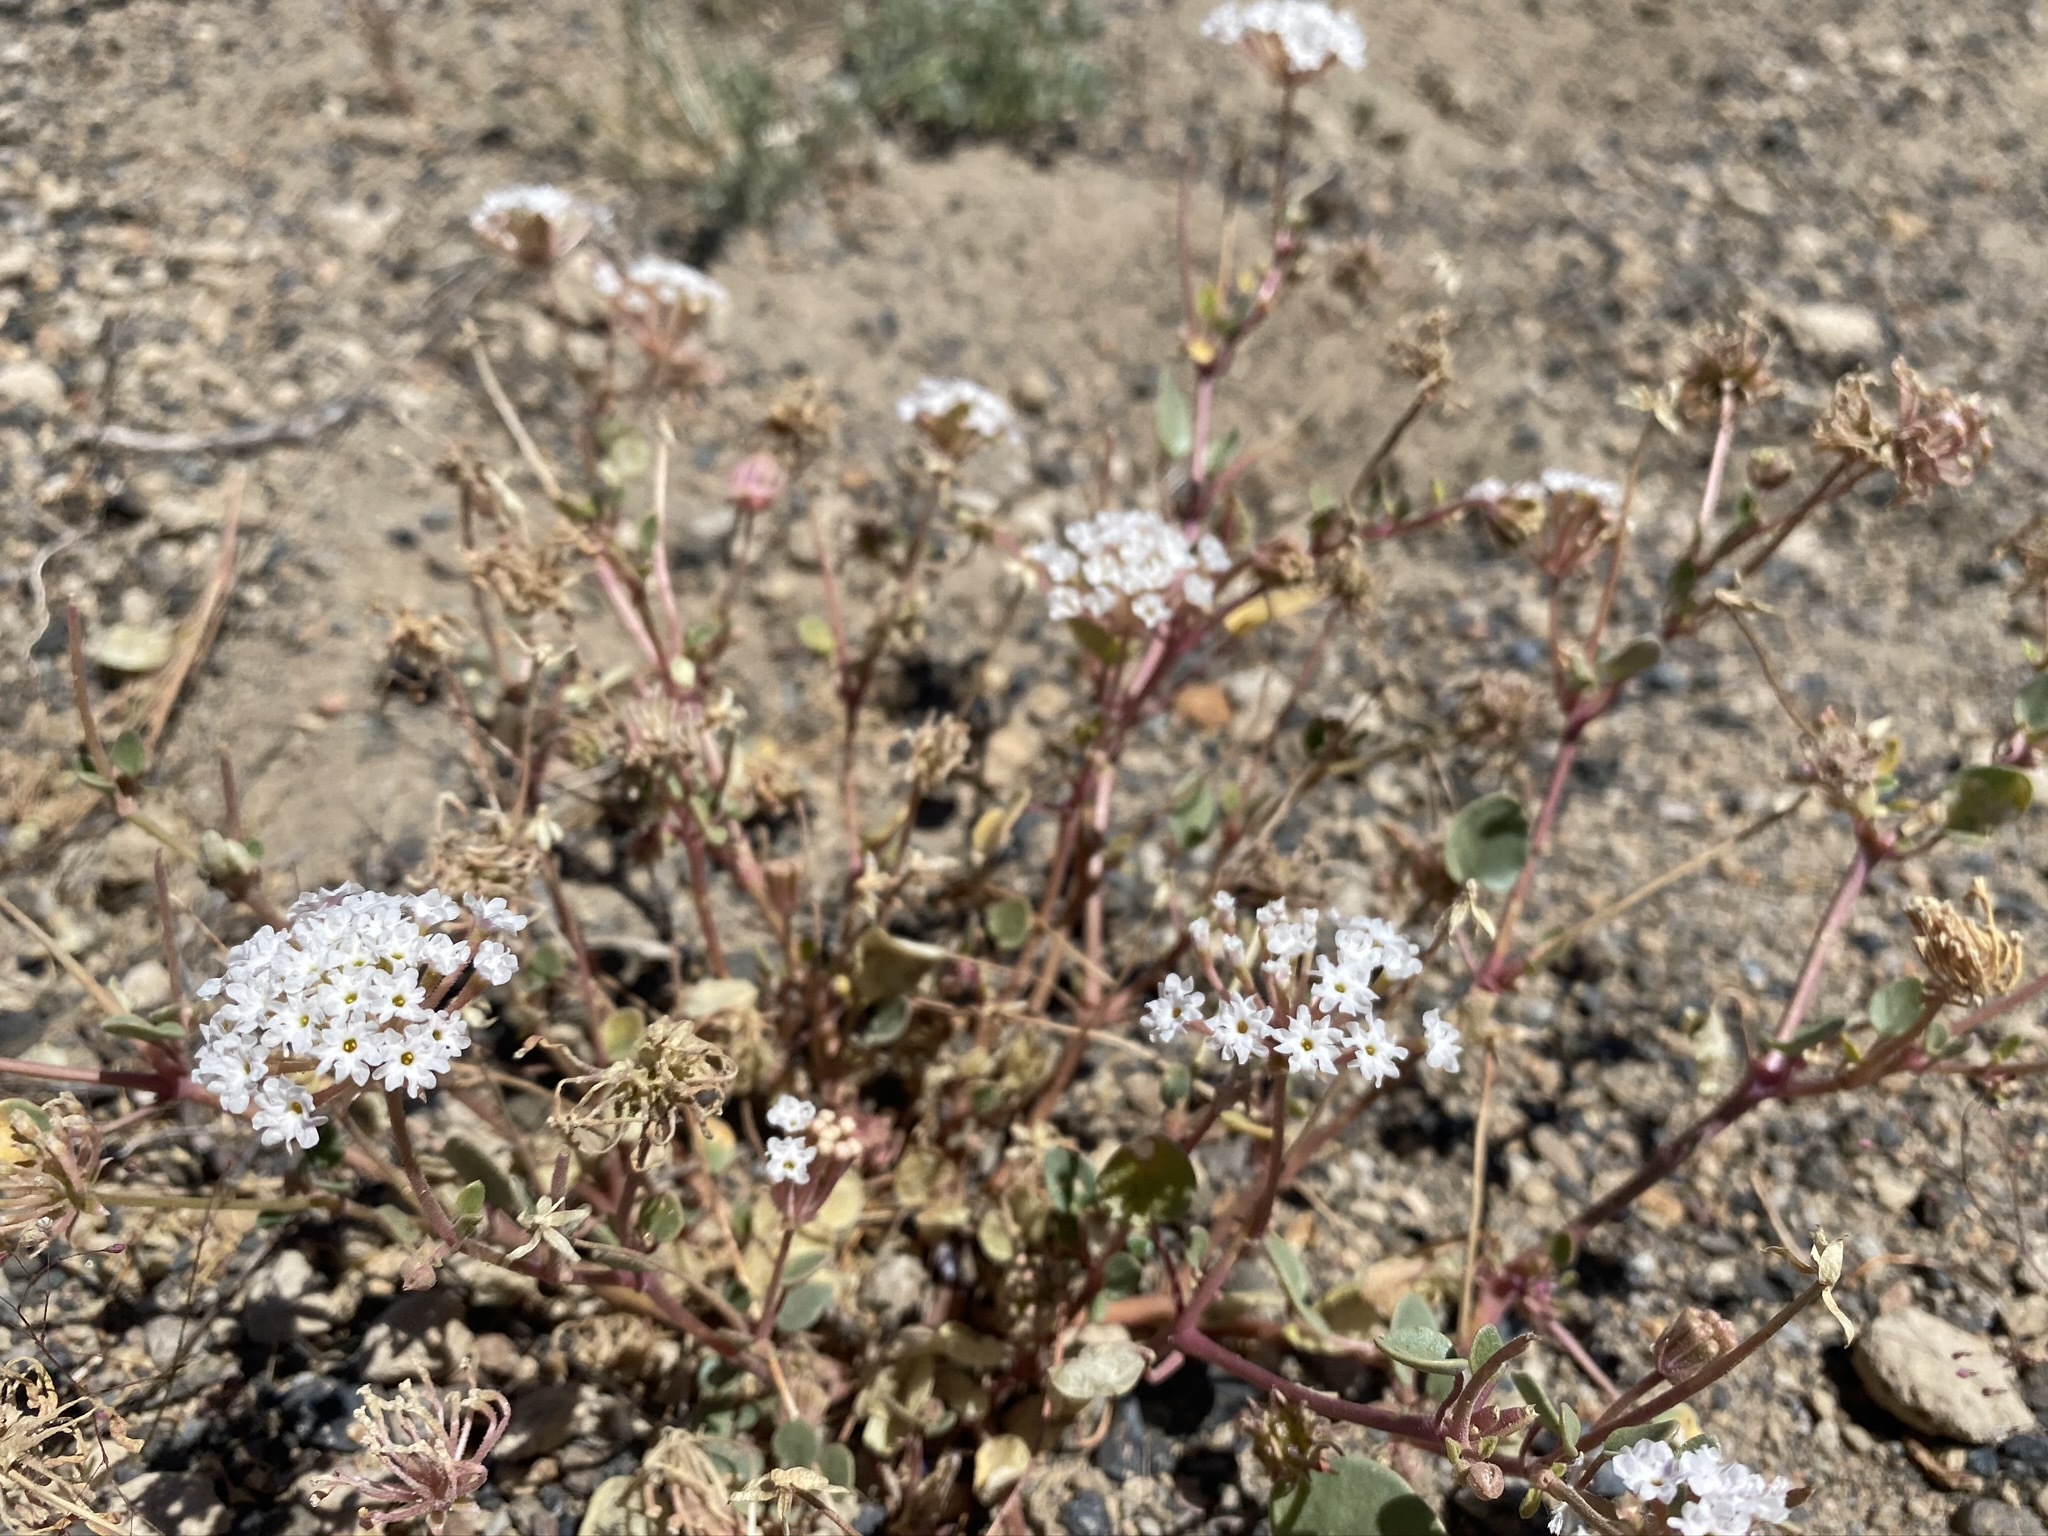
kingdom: Plantae
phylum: Tracheophyta
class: Magnoliopsida
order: Caryophyllales
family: Nyctaginaceae
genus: Abronia
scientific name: Abronia turbinata
